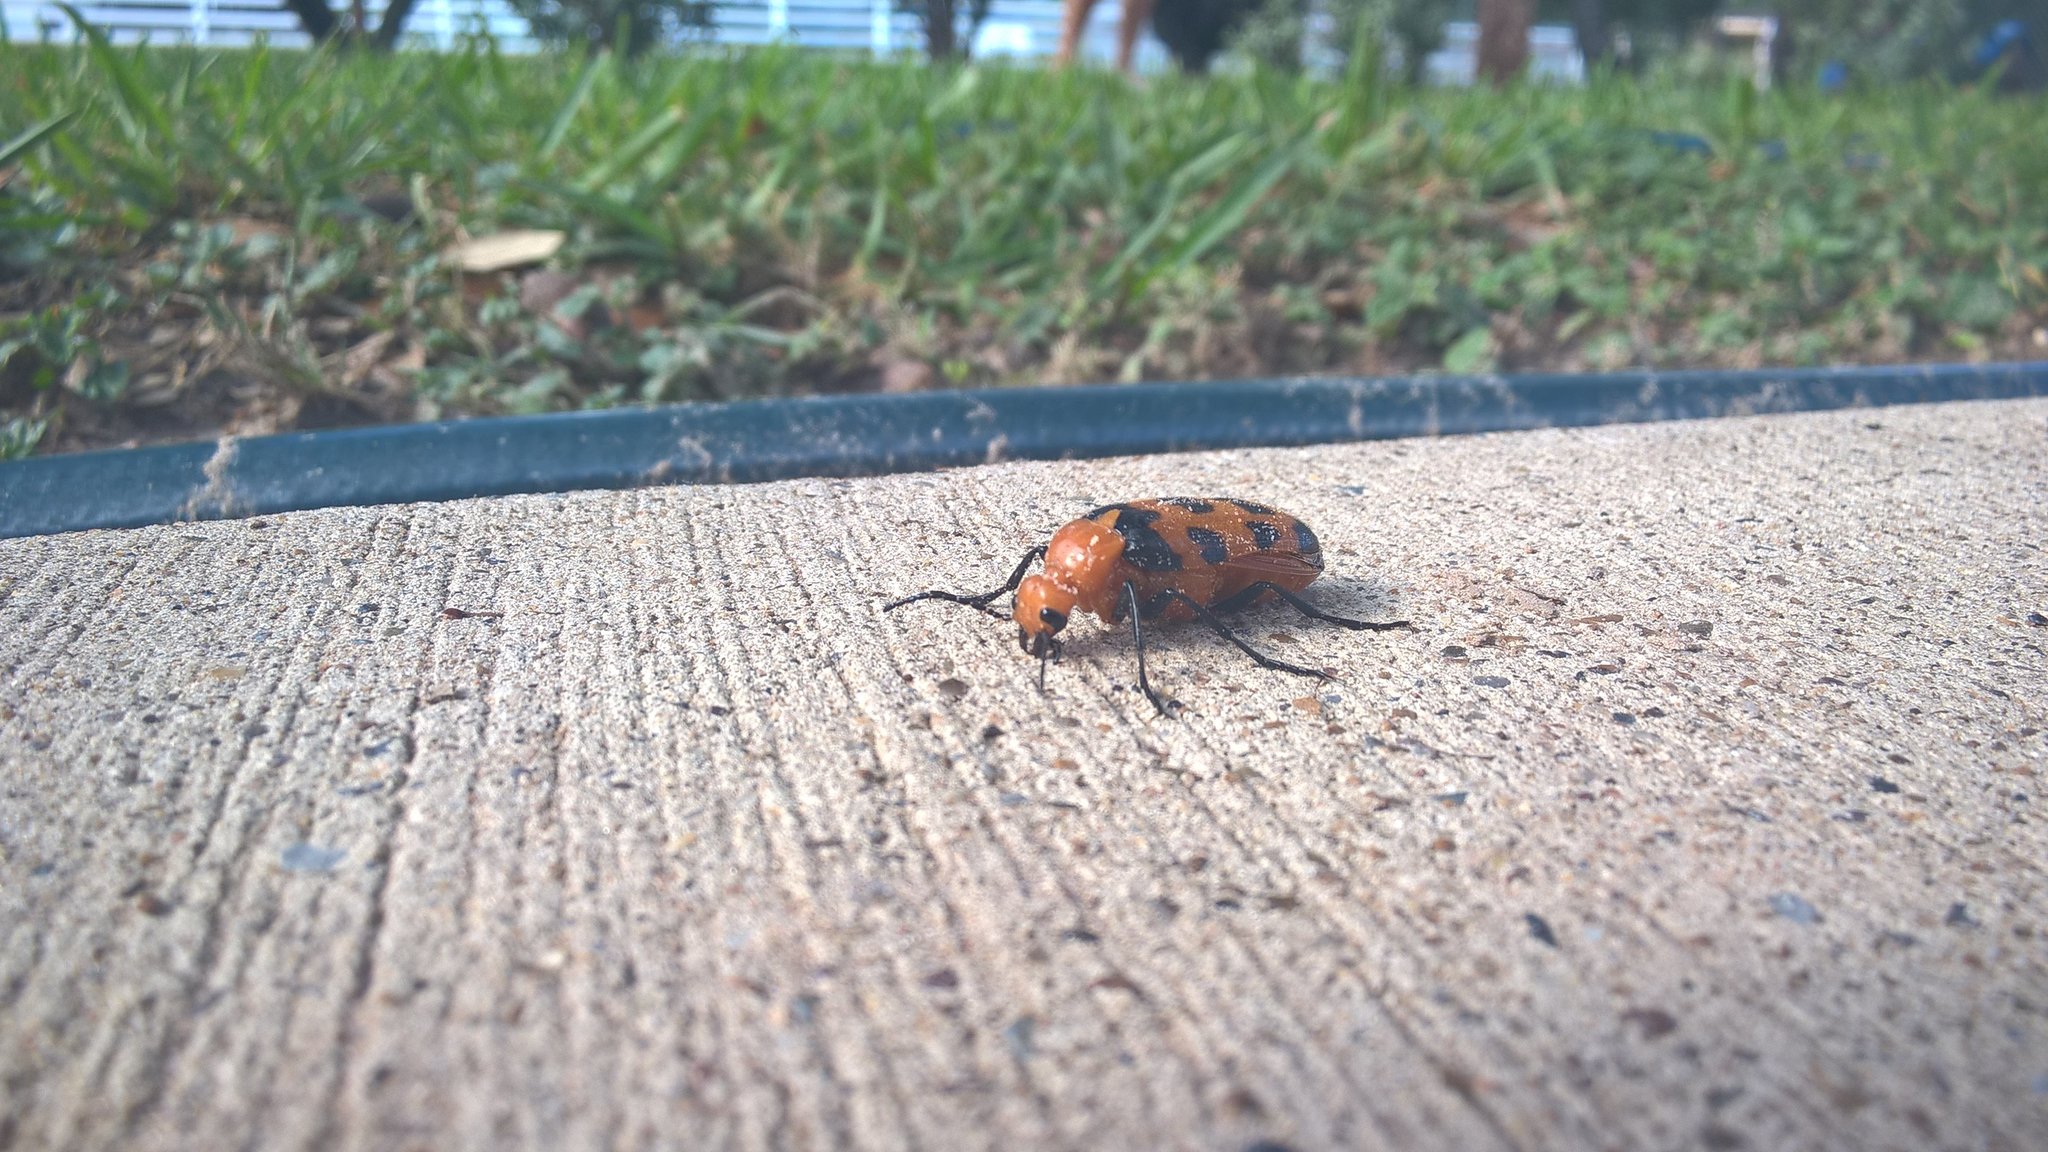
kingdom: Animalia
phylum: Arthropoda
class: Insecta
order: Coleoptera
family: Meloidae
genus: Cissites
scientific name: Cissites auriculata
